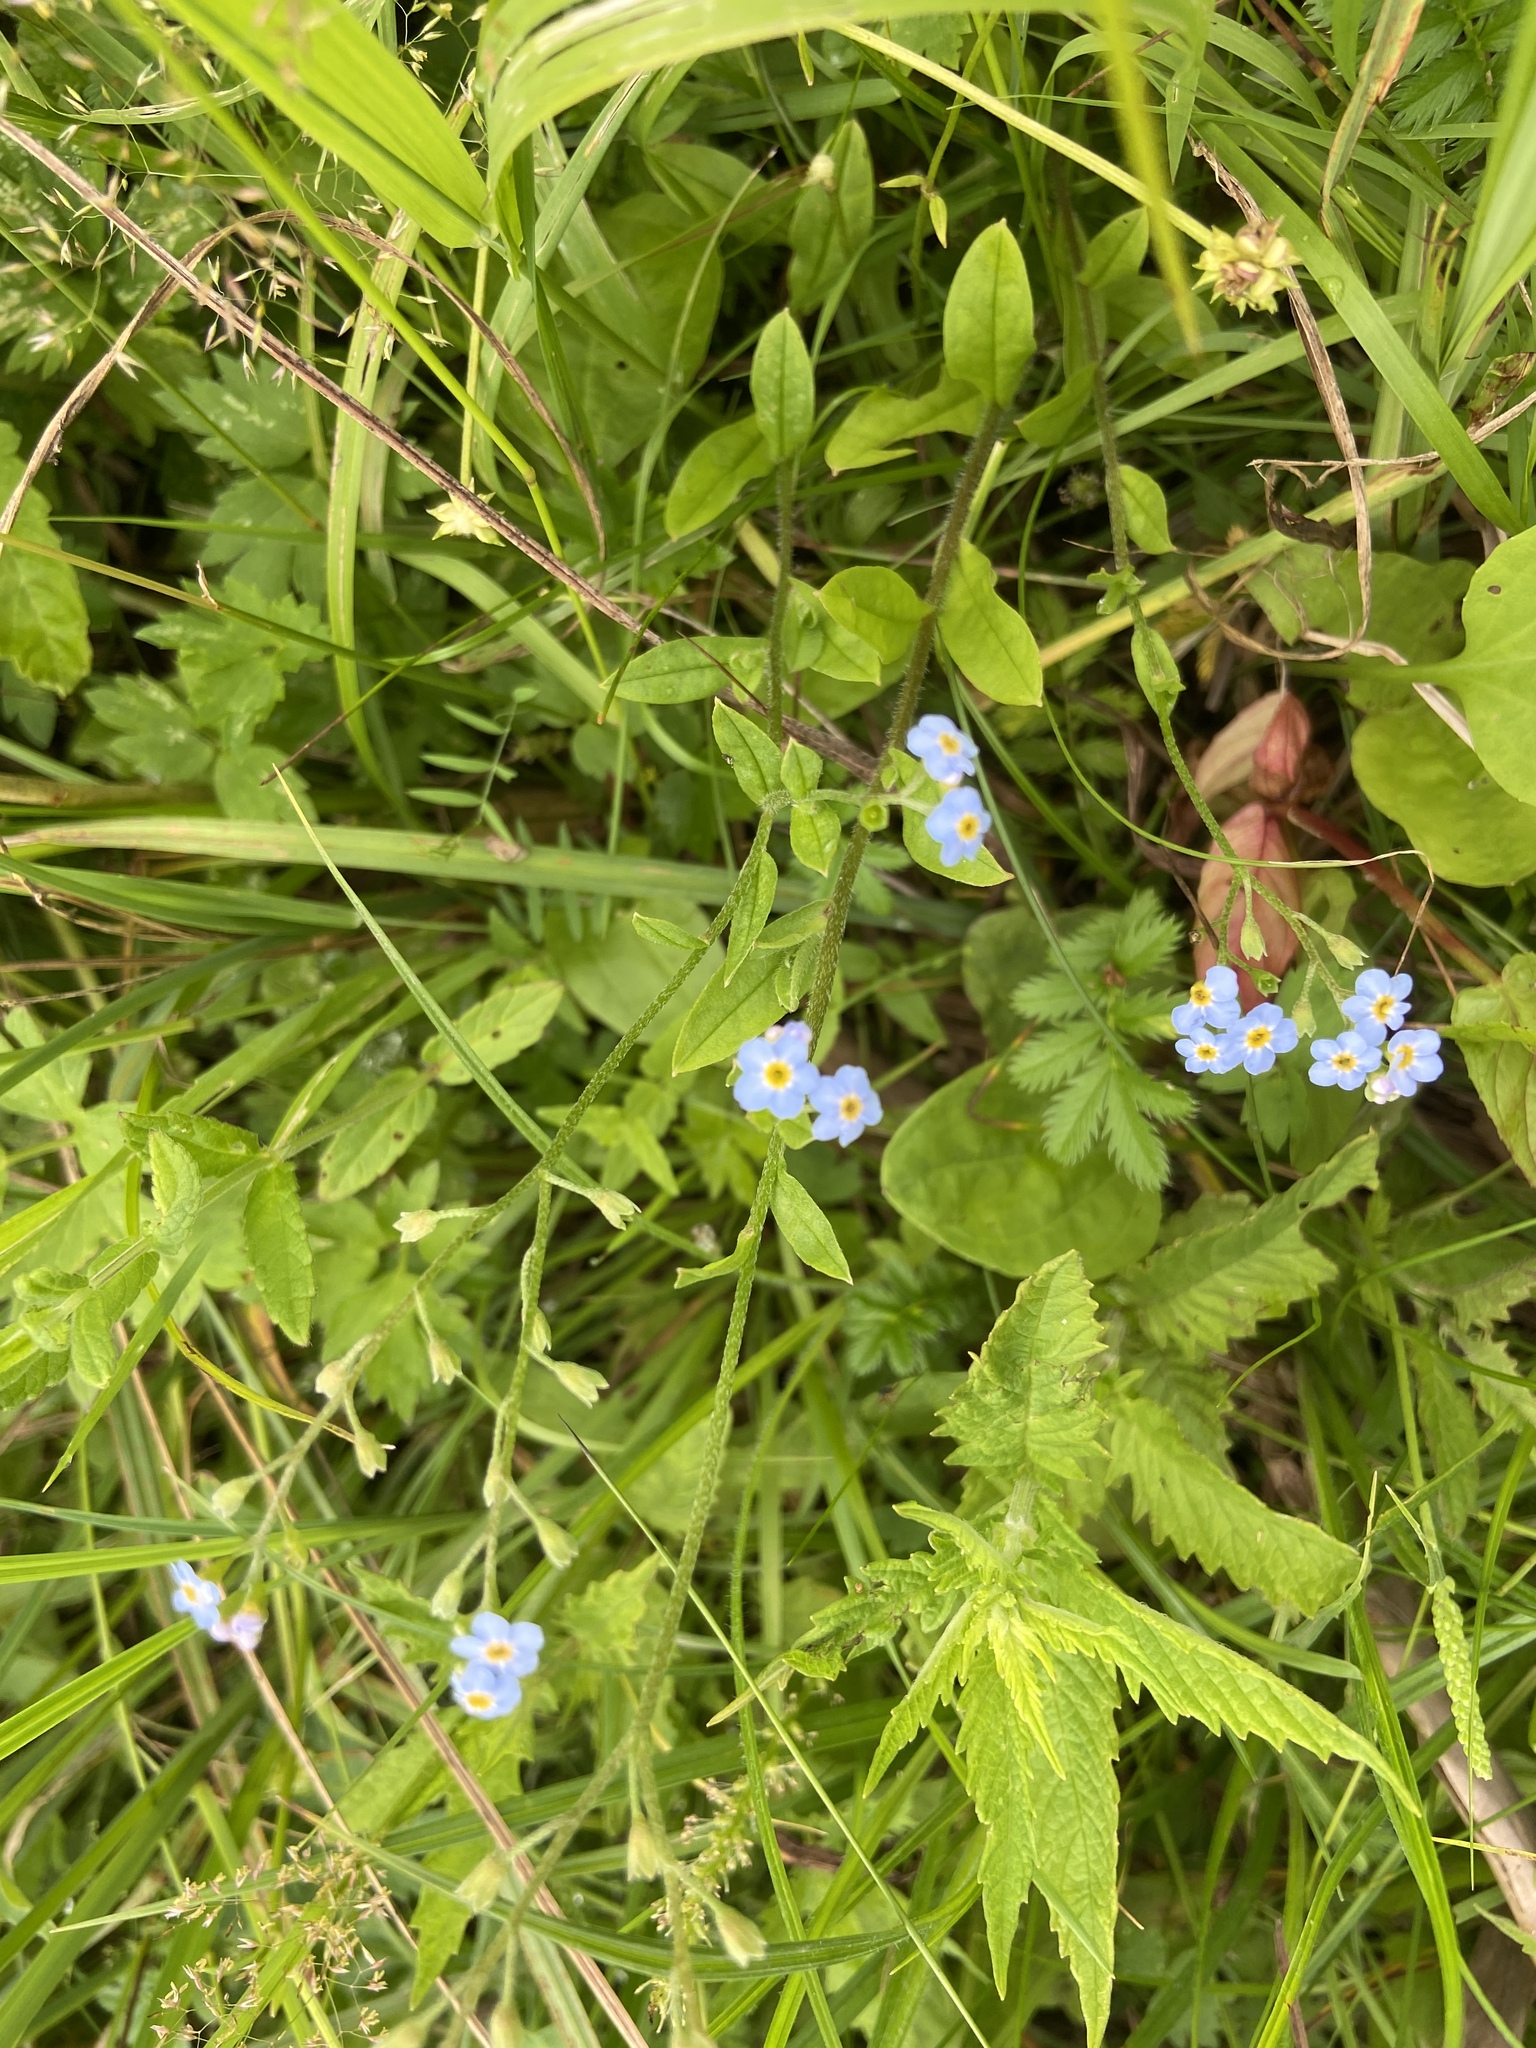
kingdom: Plantae
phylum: Tracheophyta
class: Magnoliopsida
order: Boraginales
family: Boraginaceae
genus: Myosotis
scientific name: Myosotis scorpioides
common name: Water forget-me-not
